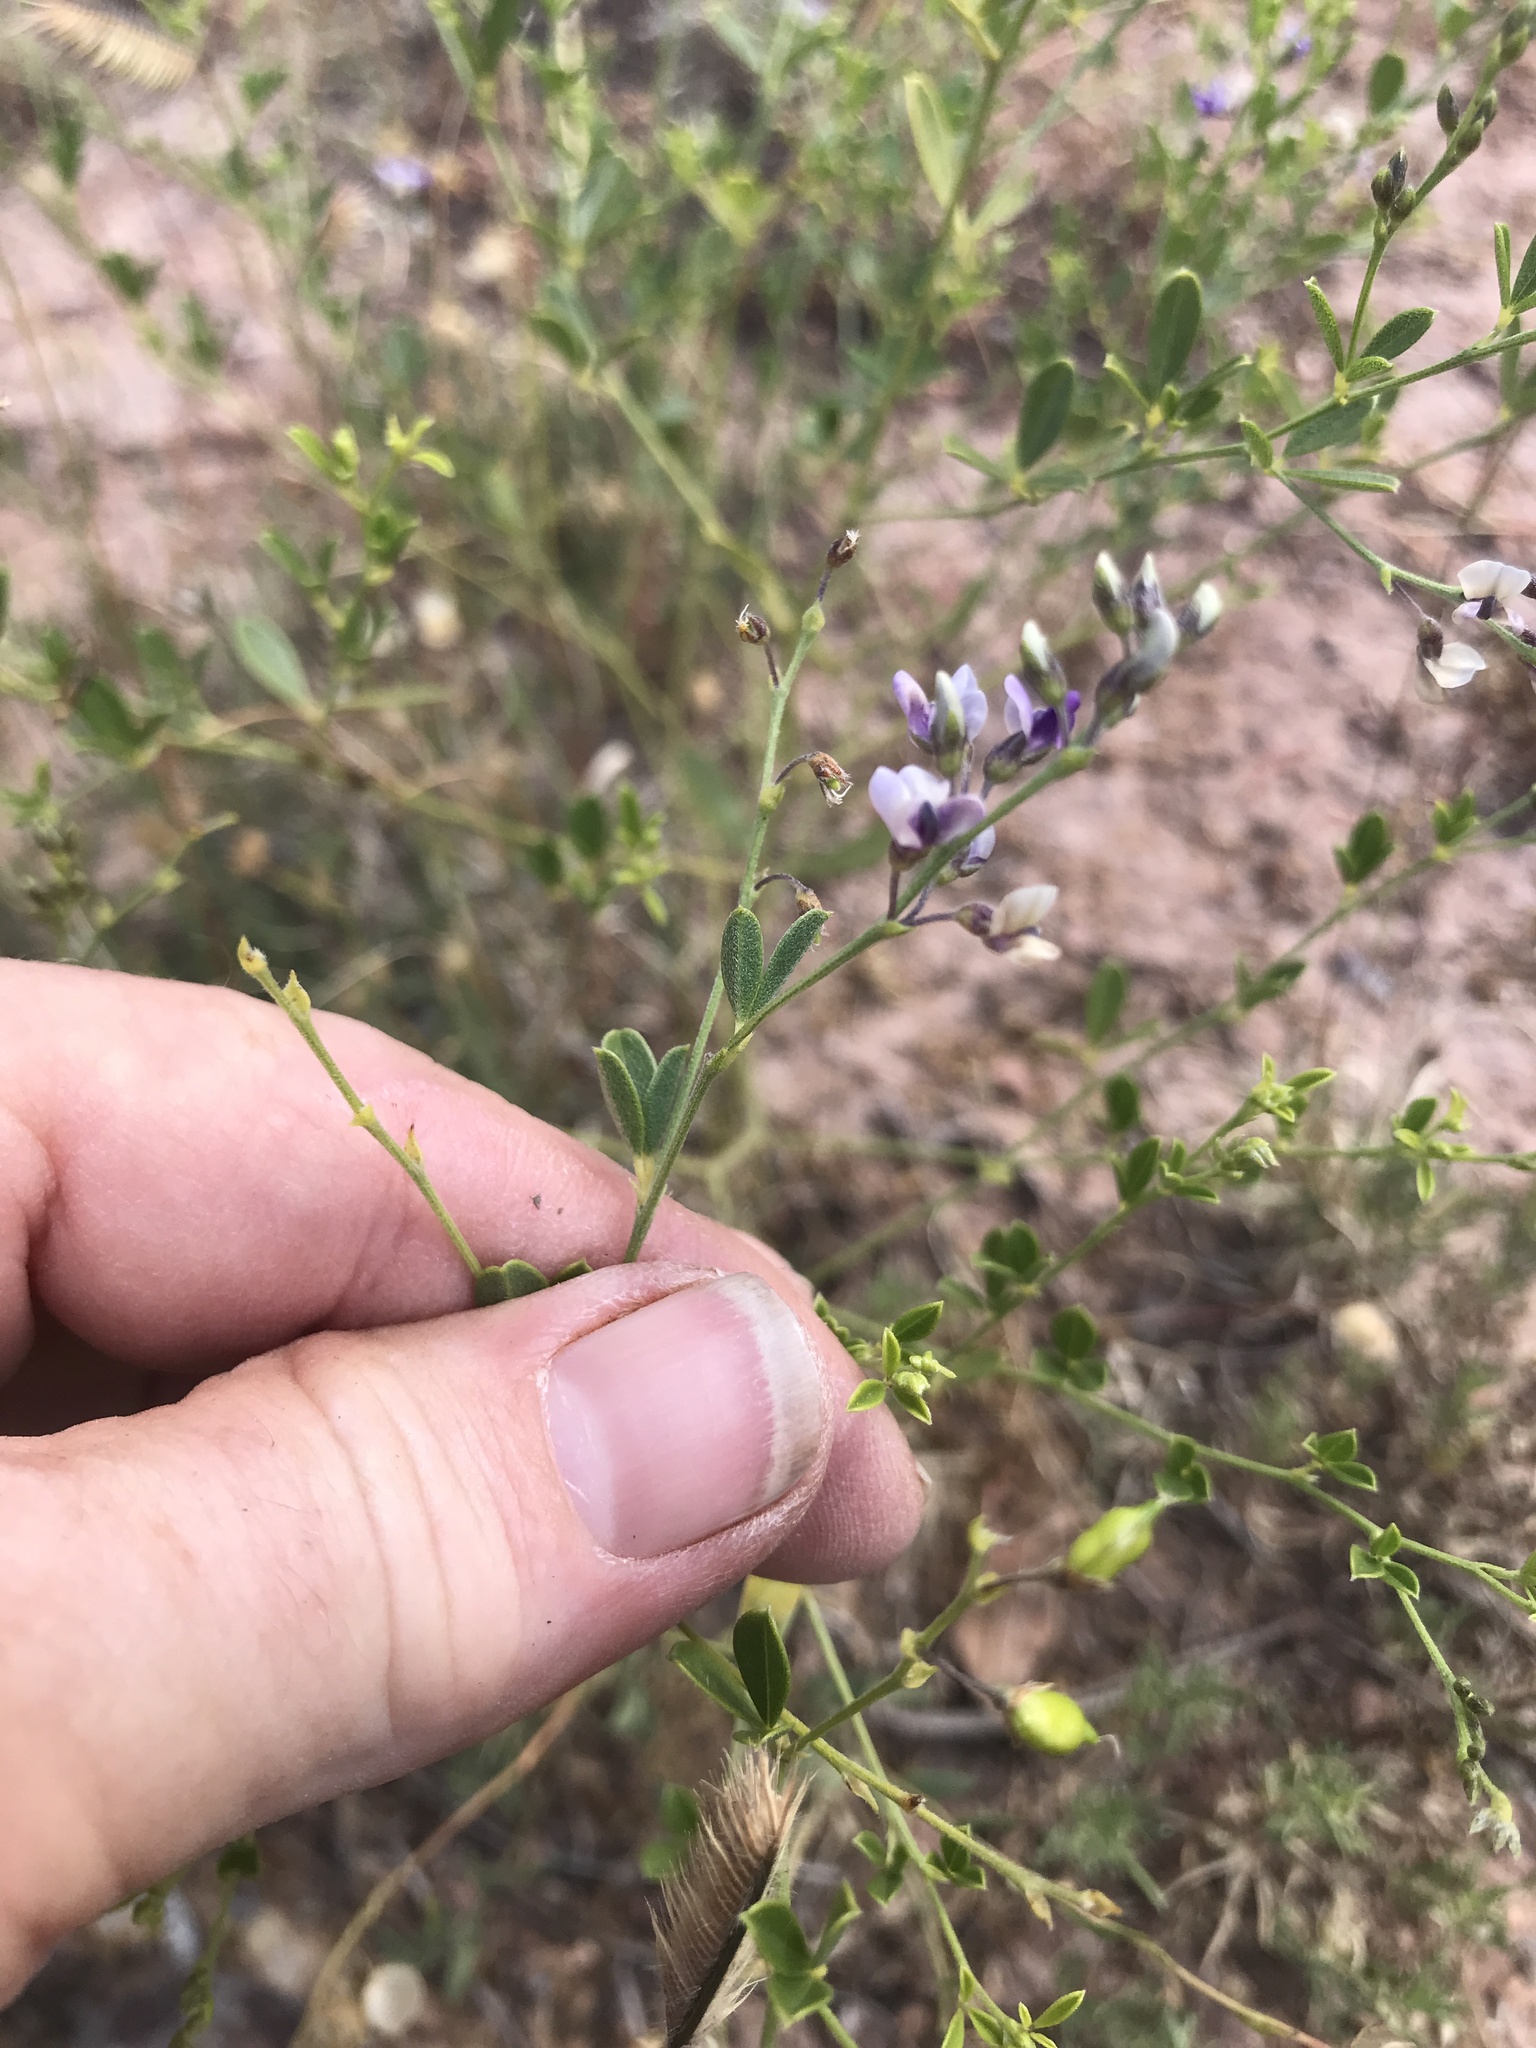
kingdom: Plantae
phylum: Tracheophyta
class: Magnoliopsida
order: Fabales
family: Fabaceae
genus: Pediomelum
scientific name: Pediomelum tenuiflorum
